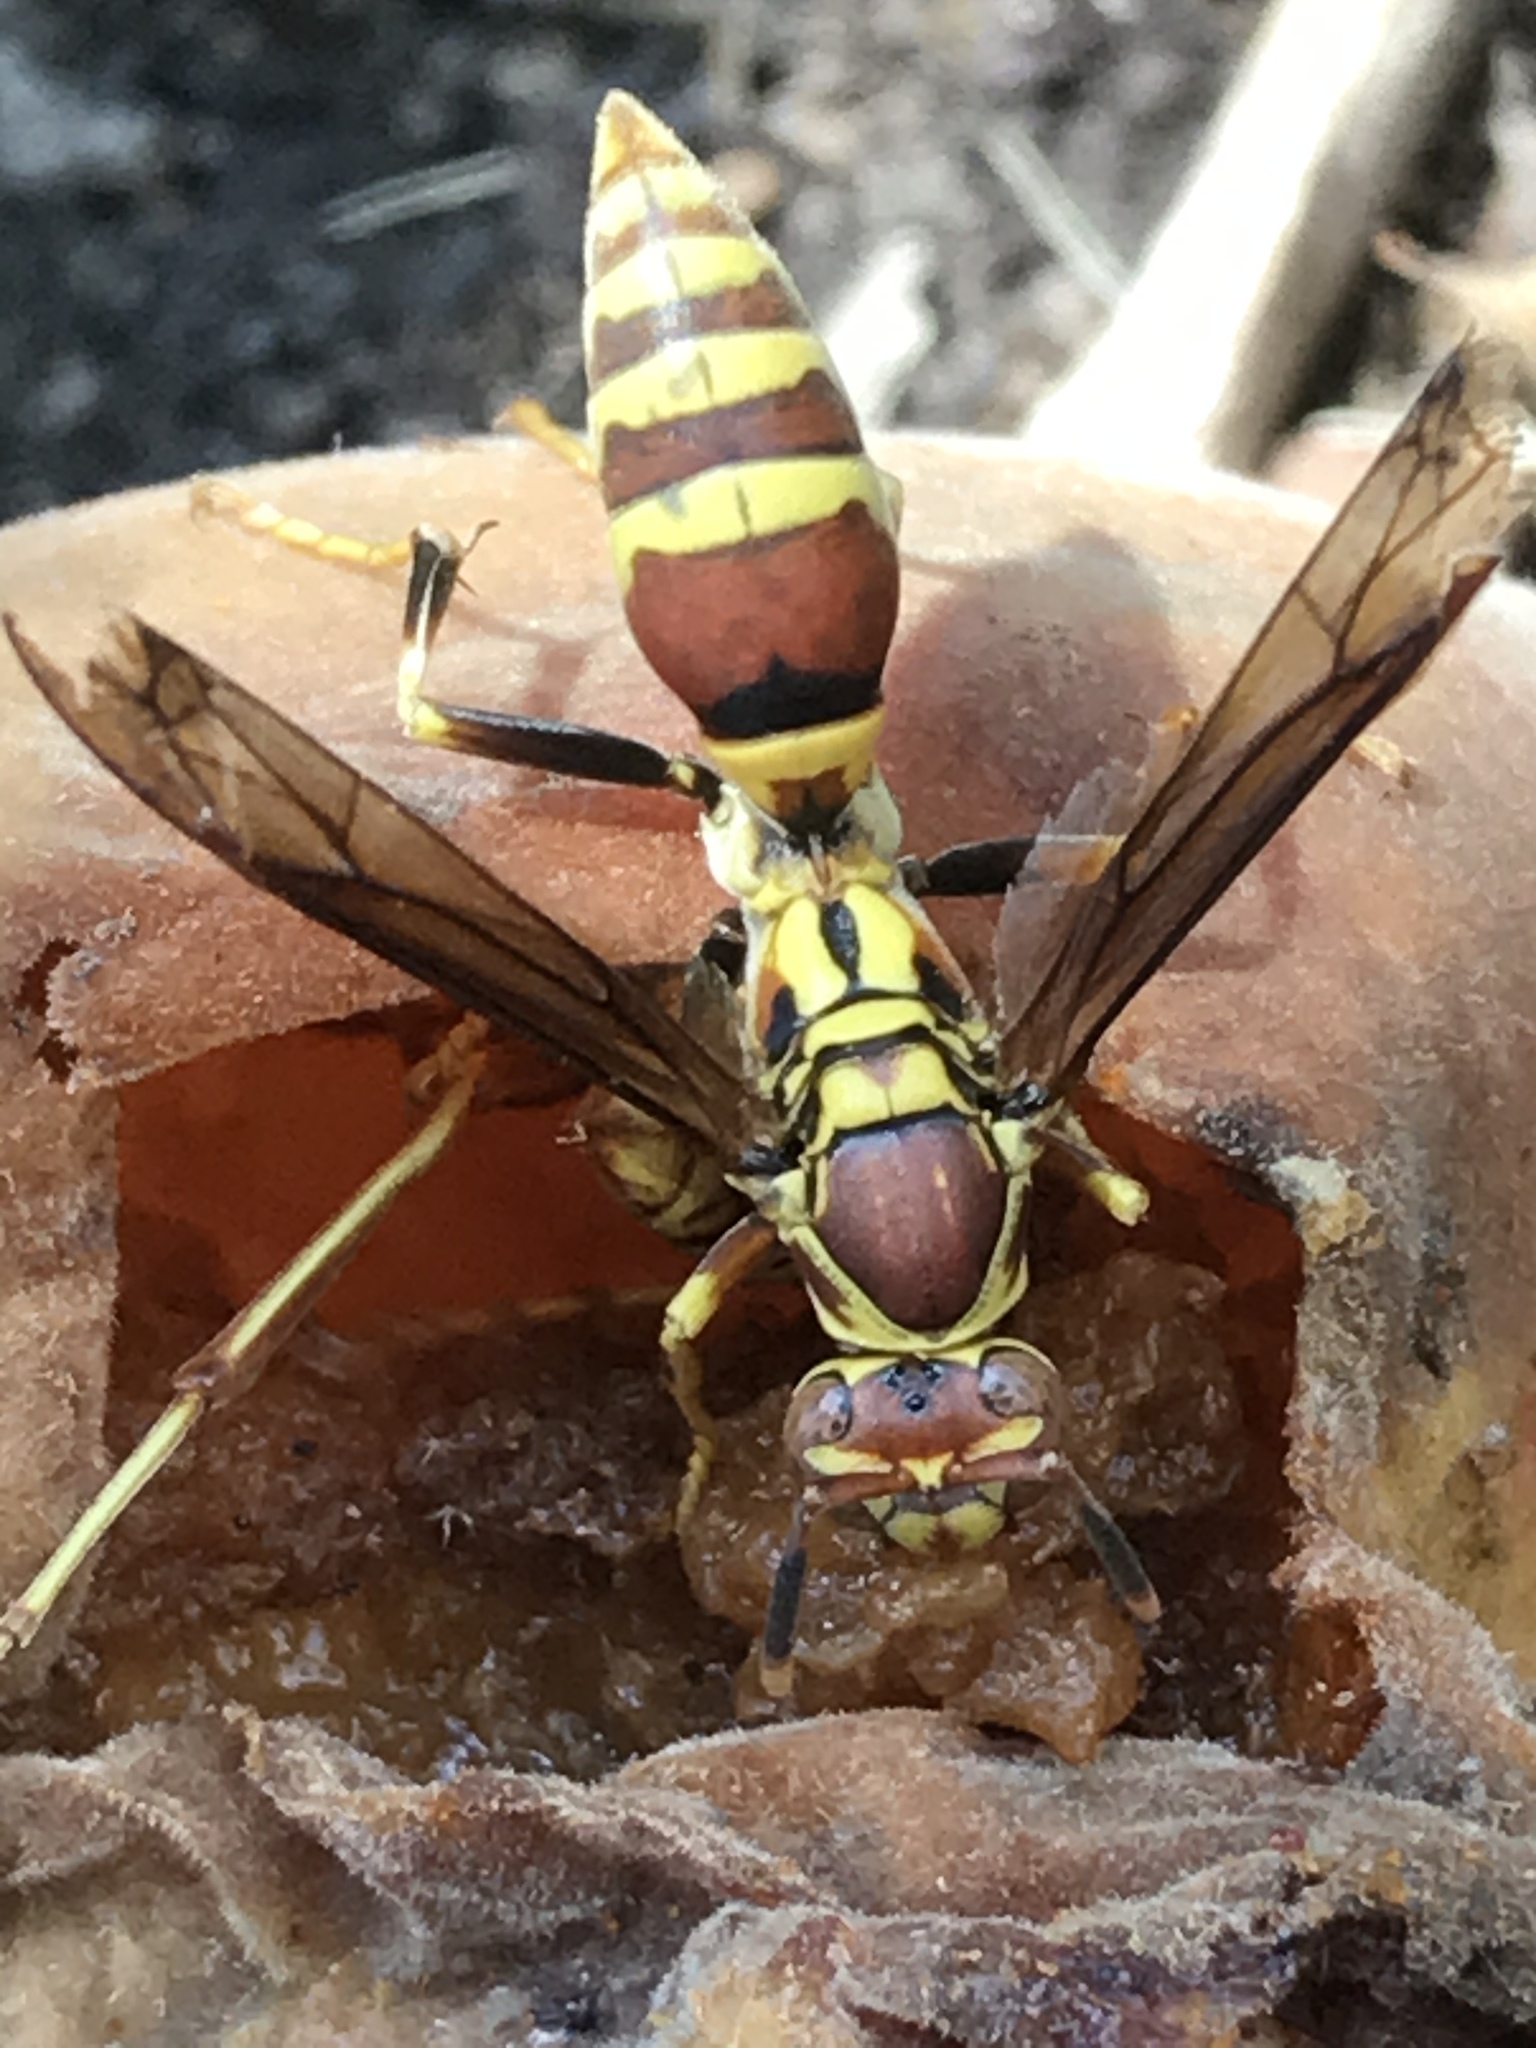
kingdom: Animalia
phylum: Arthropoda
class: Insecta
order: Hymenoptera
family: Eumenidae
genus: Polistes
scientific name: Polistes exclamans
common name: Paper wasp
